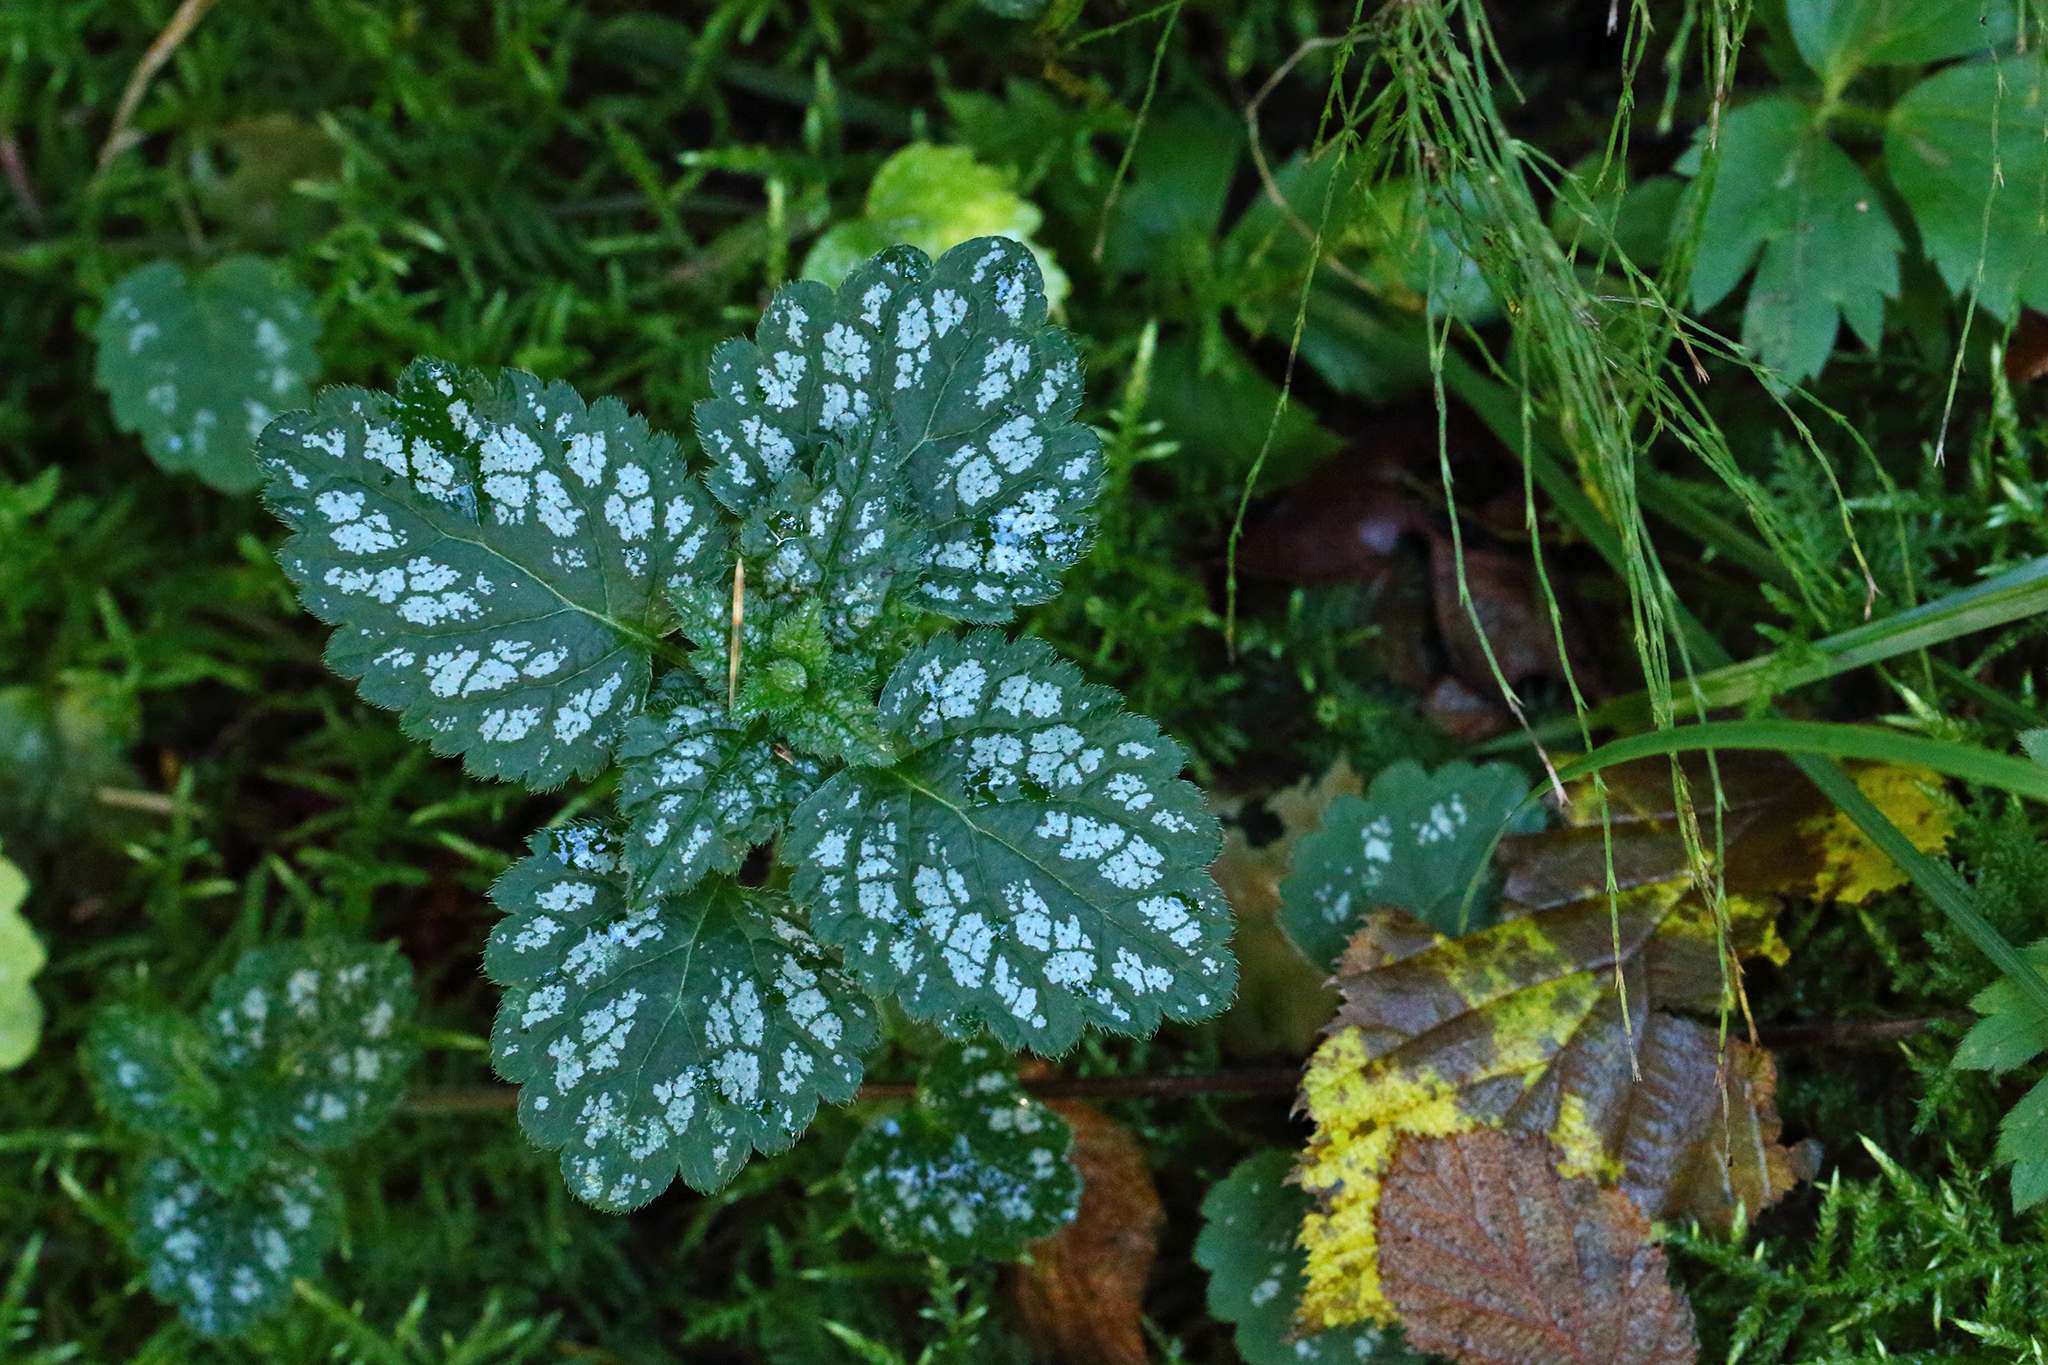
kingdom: Plantae
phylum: Tracheophyta
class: Magnoliopsida
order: Lamiales
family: Lamiaceae
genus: Lamium
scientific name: Lamium galeobdolon
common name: Yellow archangel
